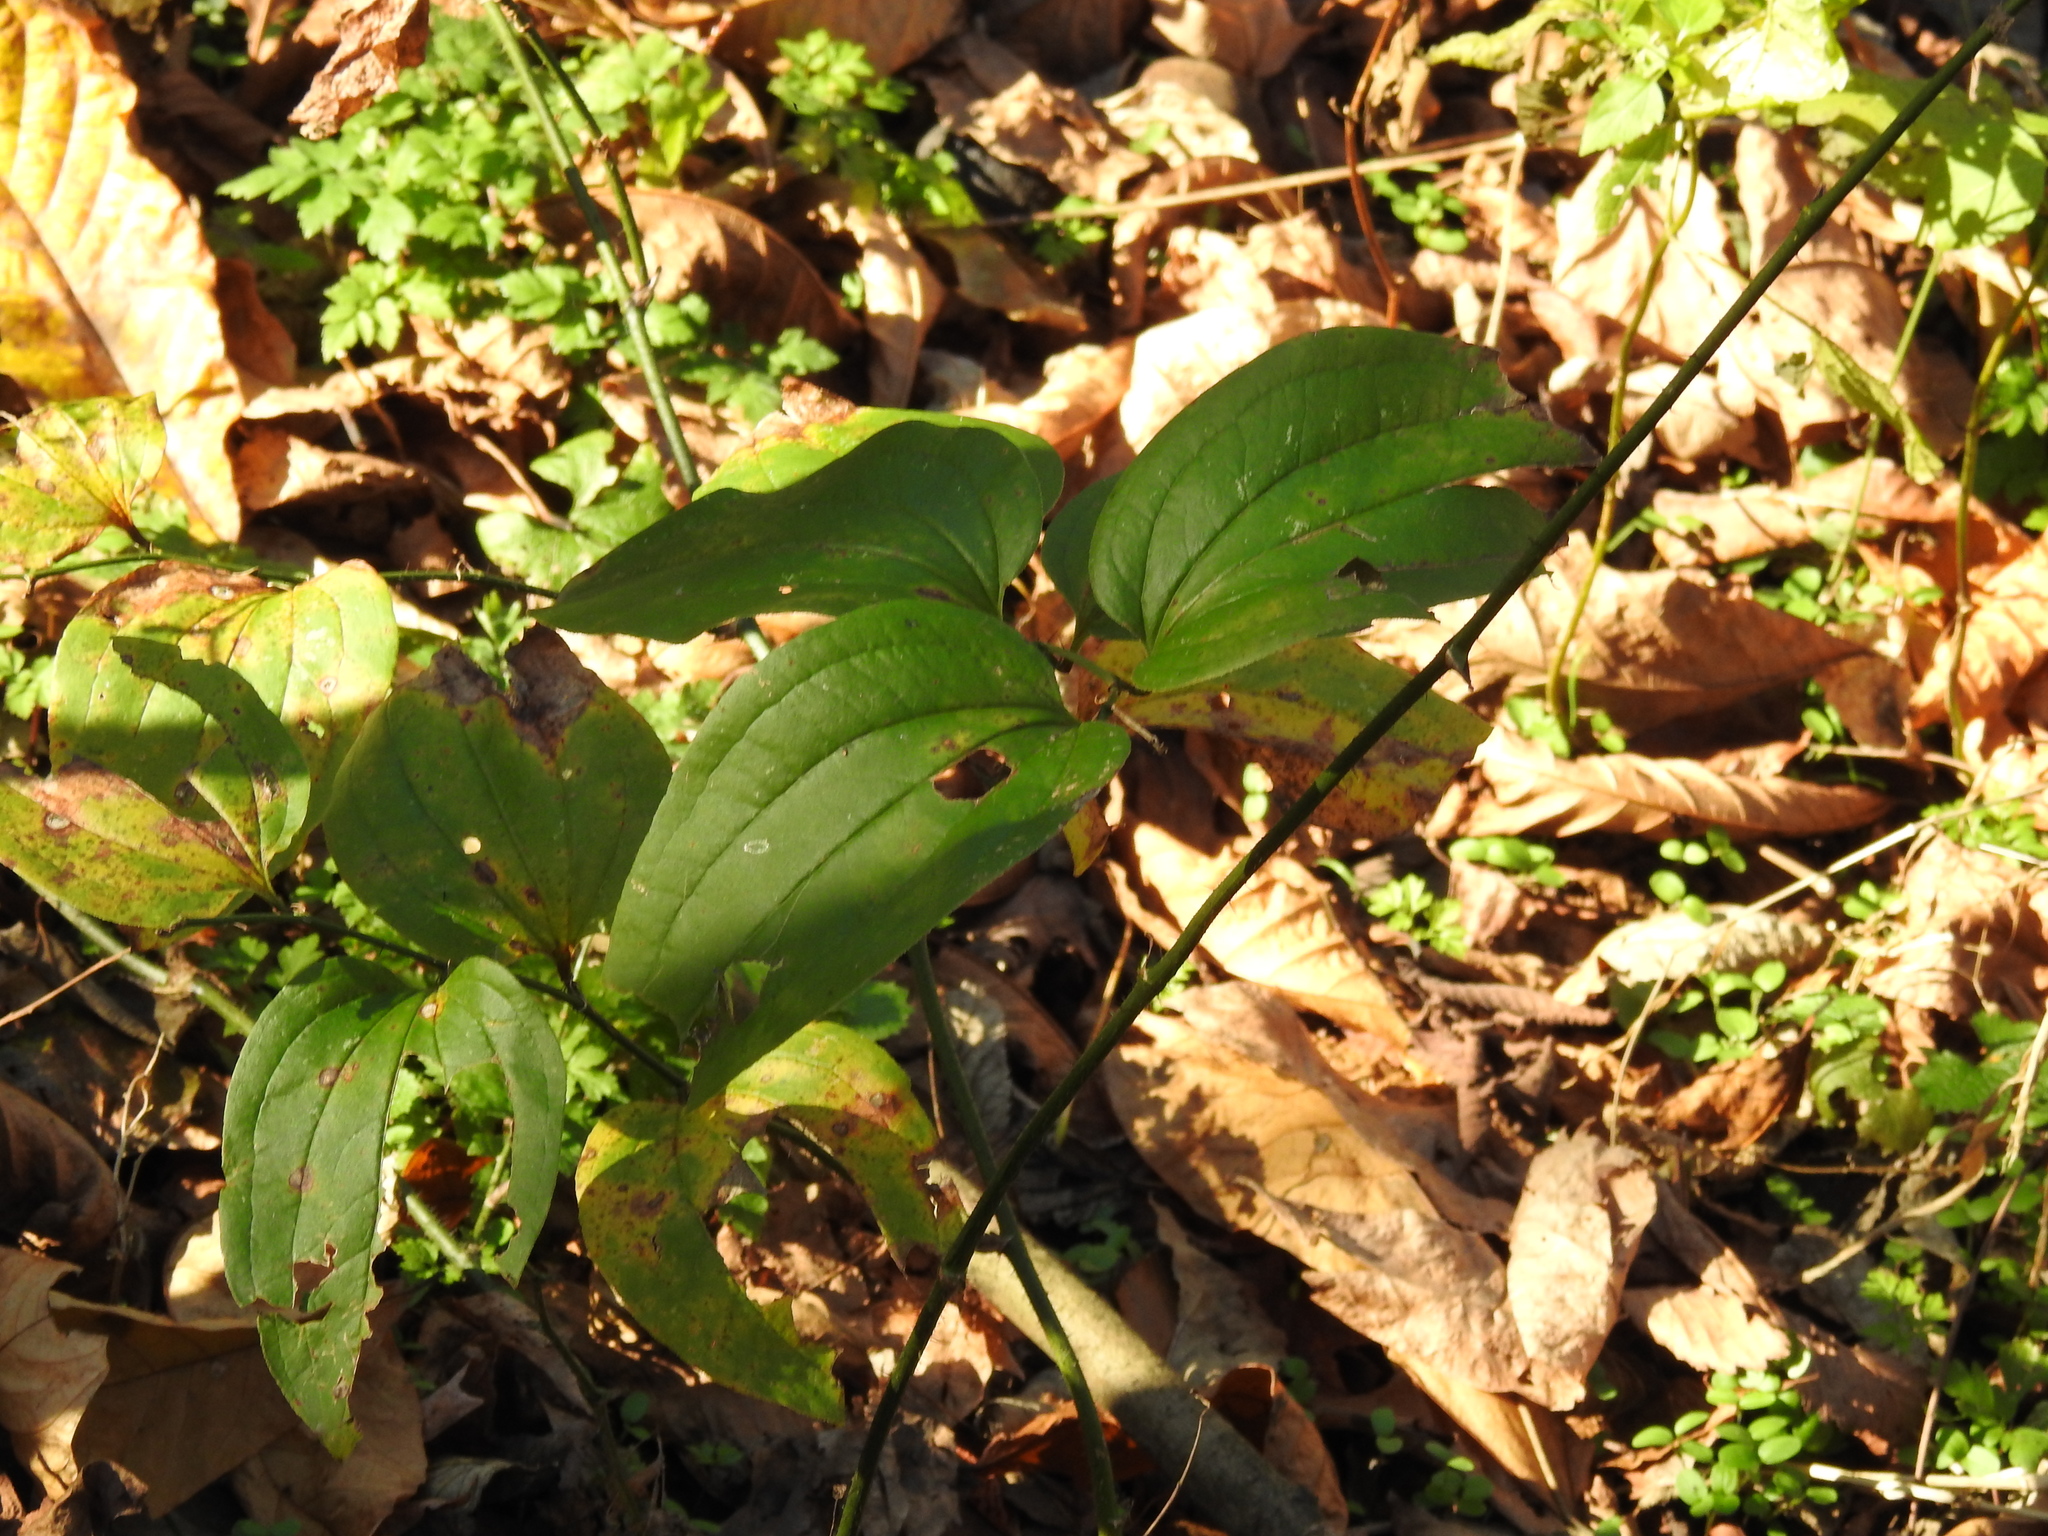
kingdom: Plantae
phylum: Tracheophyta
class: Liliopsida
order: Liliales
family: Smilacaceae
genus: Smilax
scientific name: Smilax tamnoides
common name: Hellfetter
